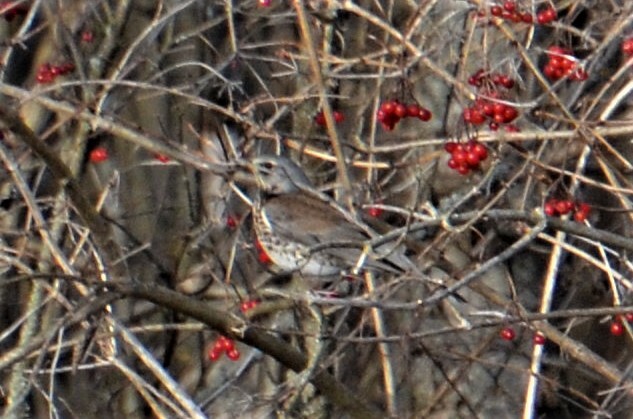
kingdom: Animalia
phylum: Chordata
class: Aves
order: Passeriformes
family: Turdidae
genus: Turdus
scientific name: Turdus pilaris
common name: Fieldfare
